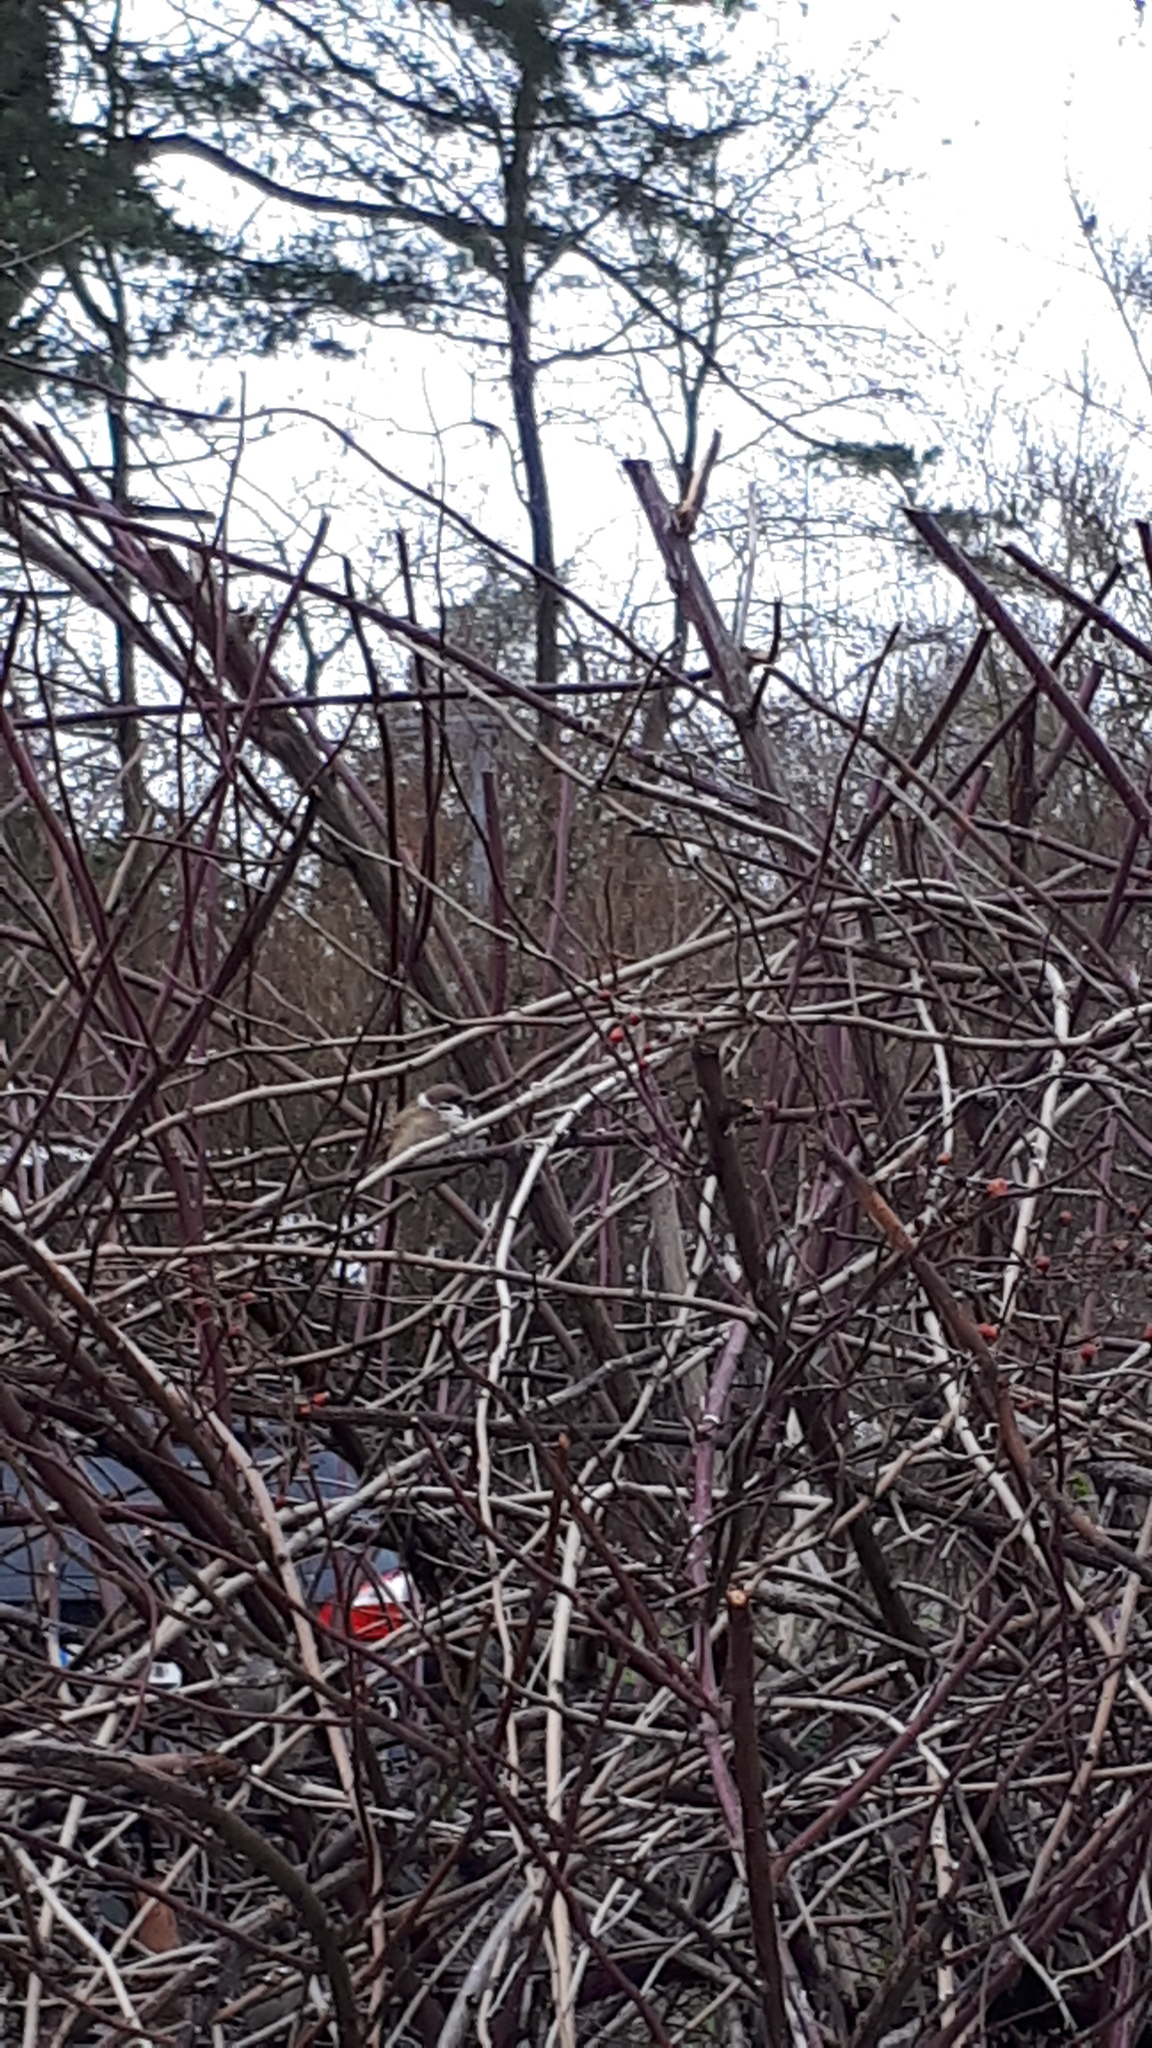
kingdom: Animalia
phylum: Chordata
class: Aves
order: Passeriformes
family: Passeridae
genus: Passer
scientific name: Passer montanus
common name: Eurasian tree sparrow
